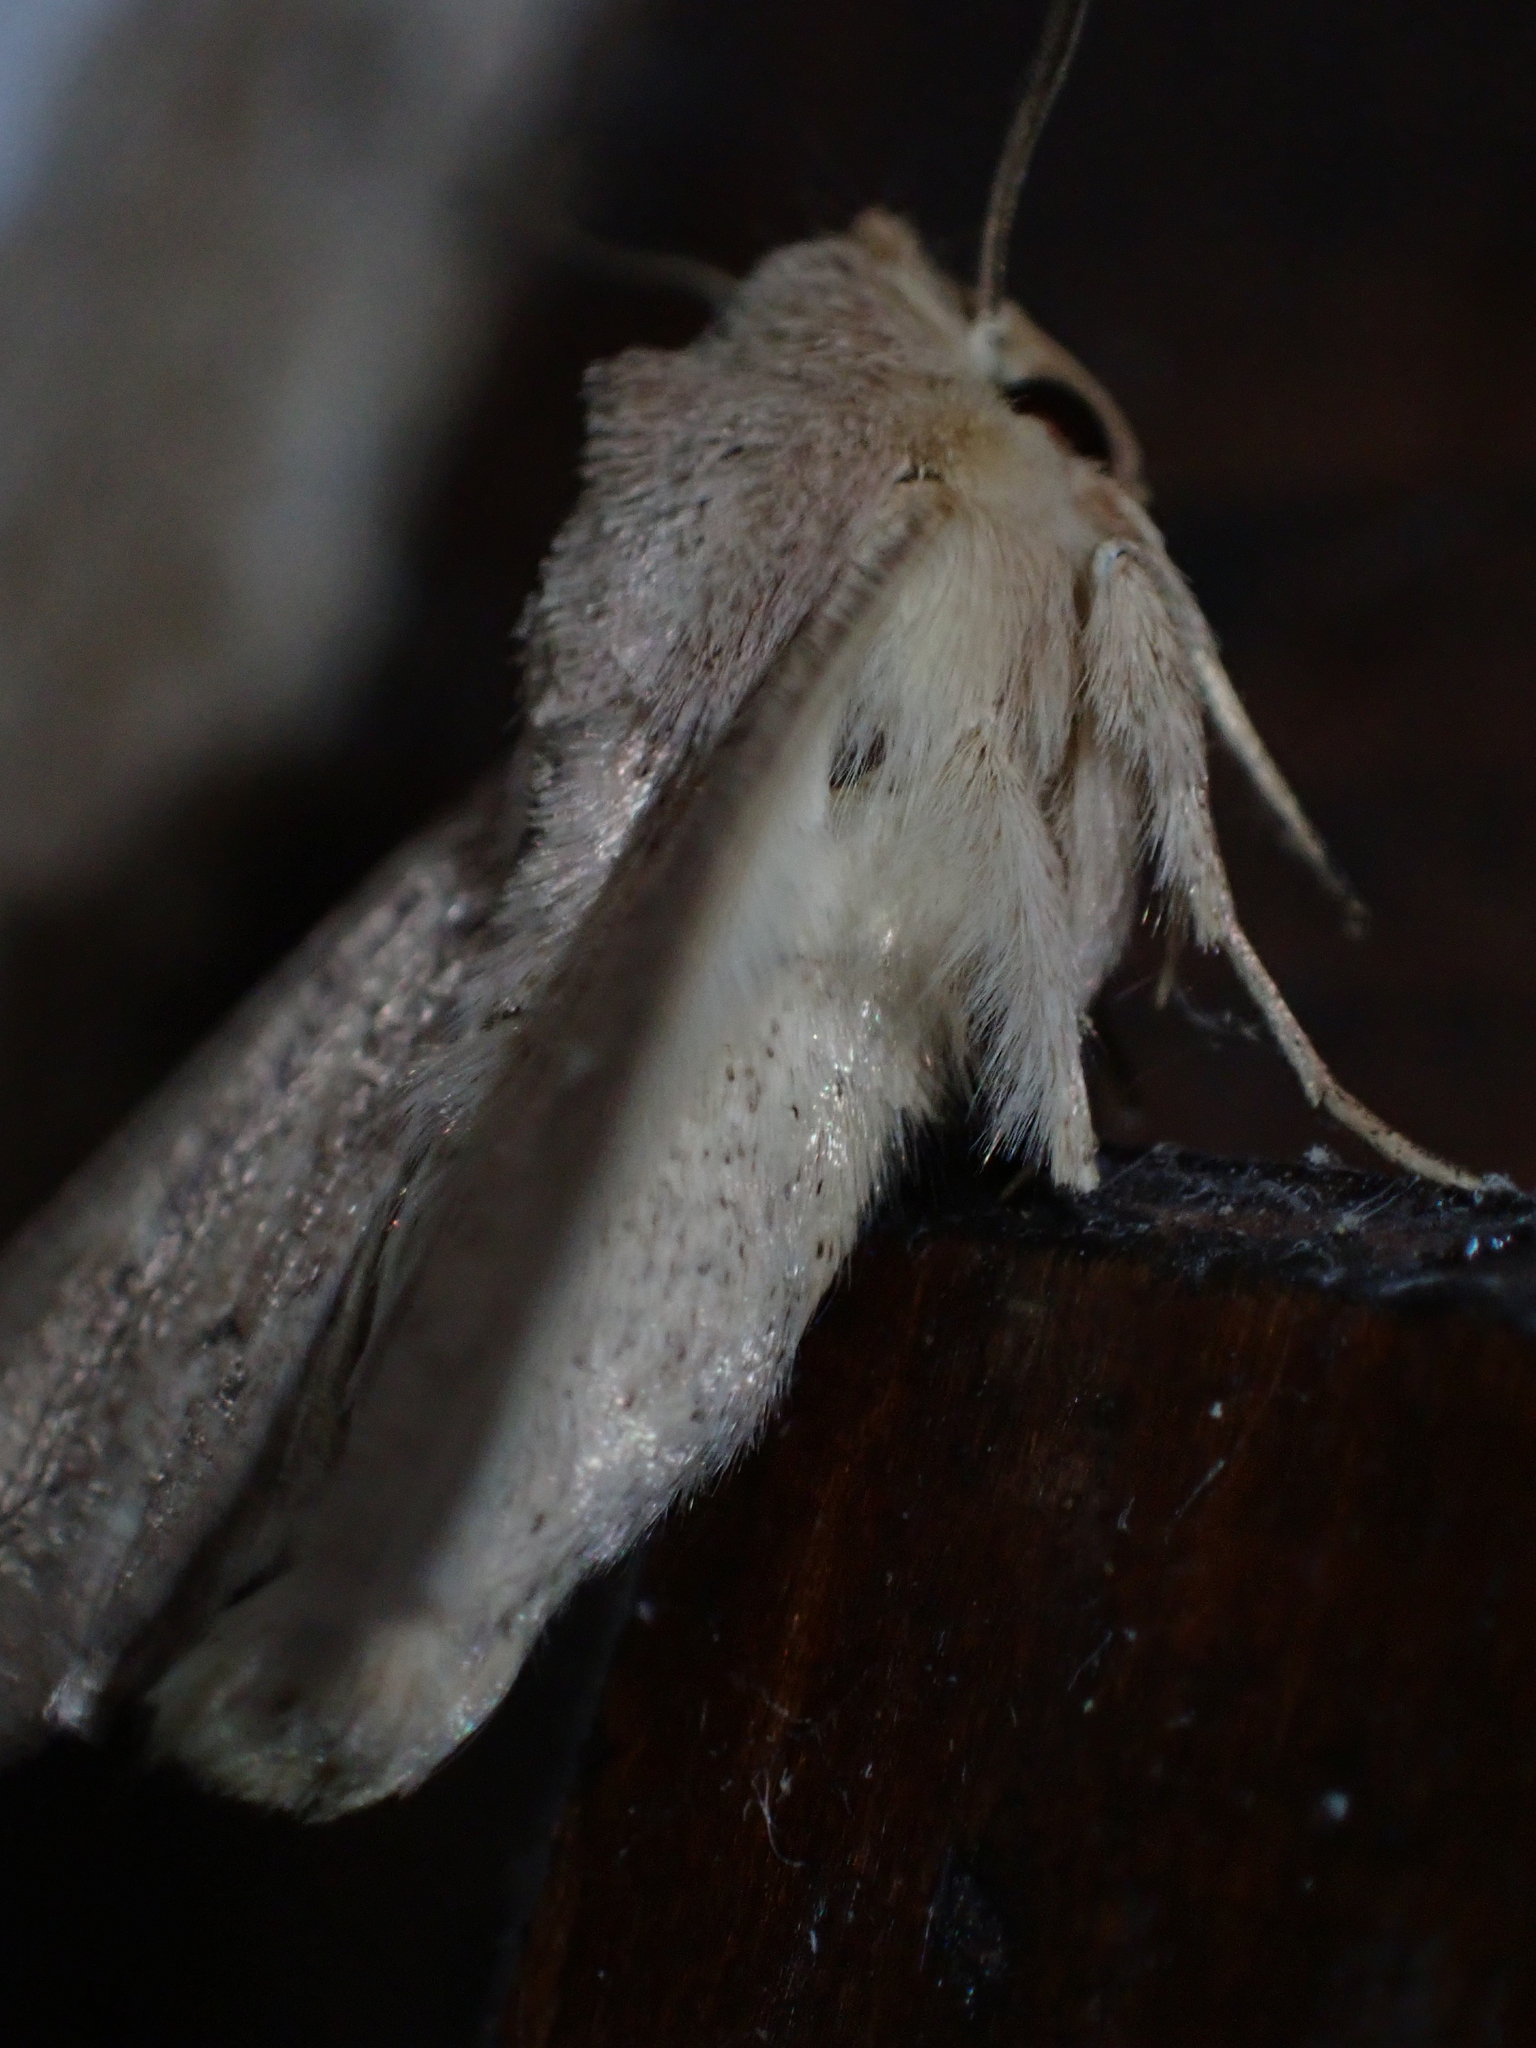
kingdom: Animalia
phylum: Arthropoda
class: Insecta
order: Lepidoptera
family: Noctuidae
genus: Mythimna
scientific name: Mythimna ferrago
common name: Clay
